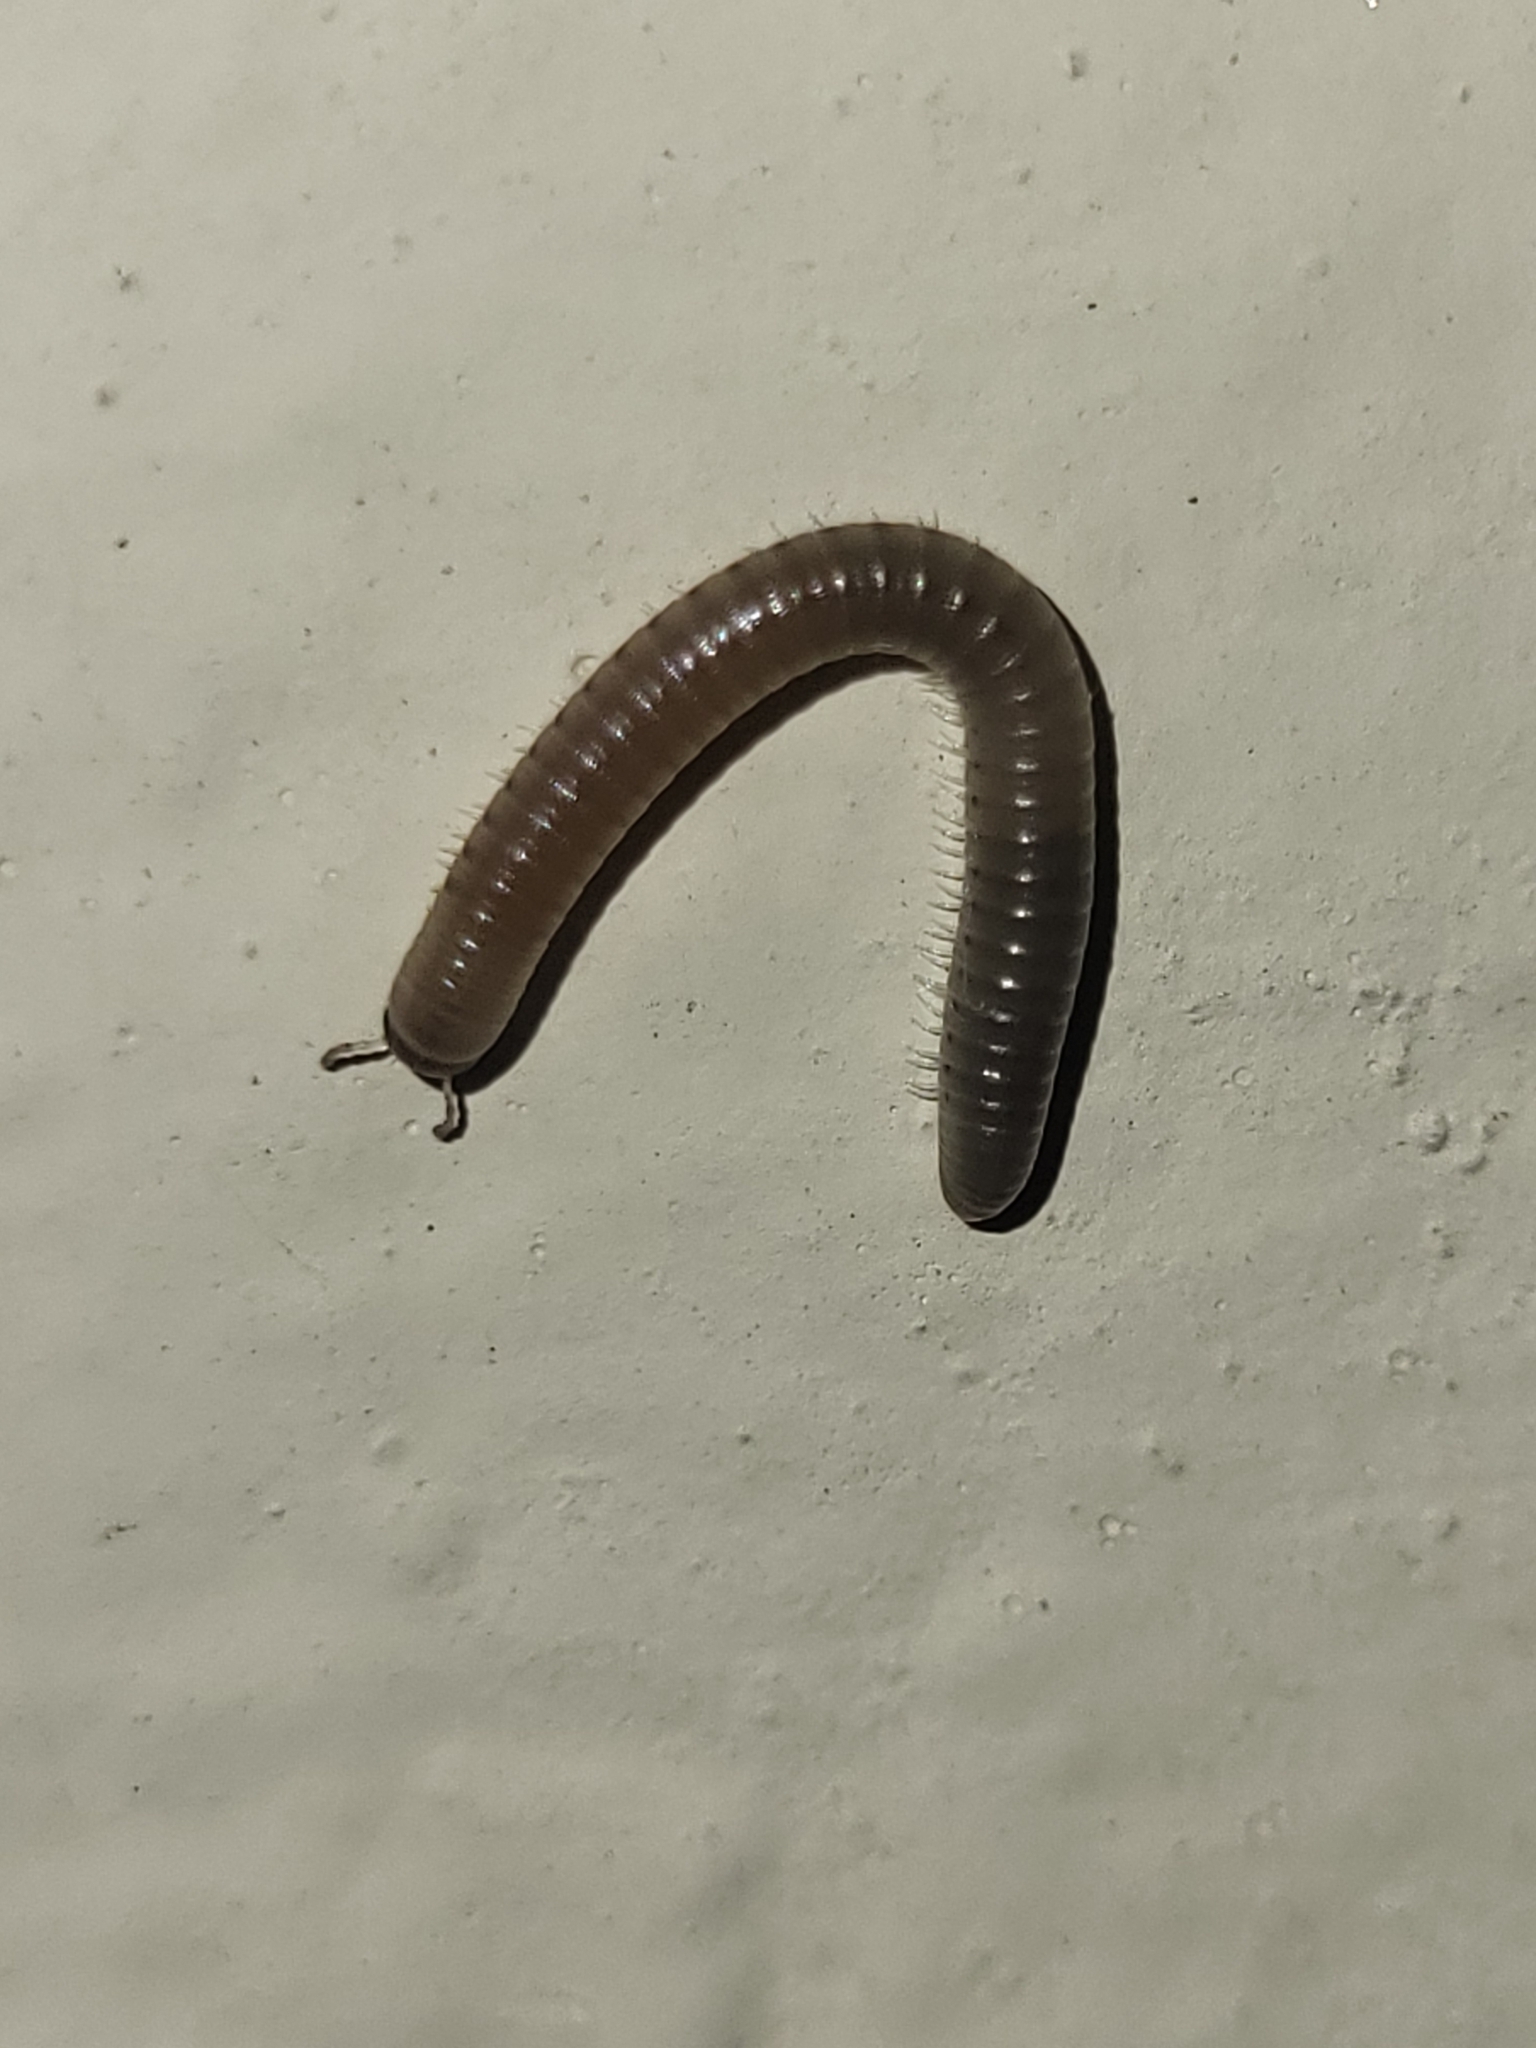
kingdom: Animalia
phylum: Arthropoda
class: Diplopoda
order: Julida
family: Julidae
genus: Pachyiulus
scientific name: Pachyiulus flavipes
